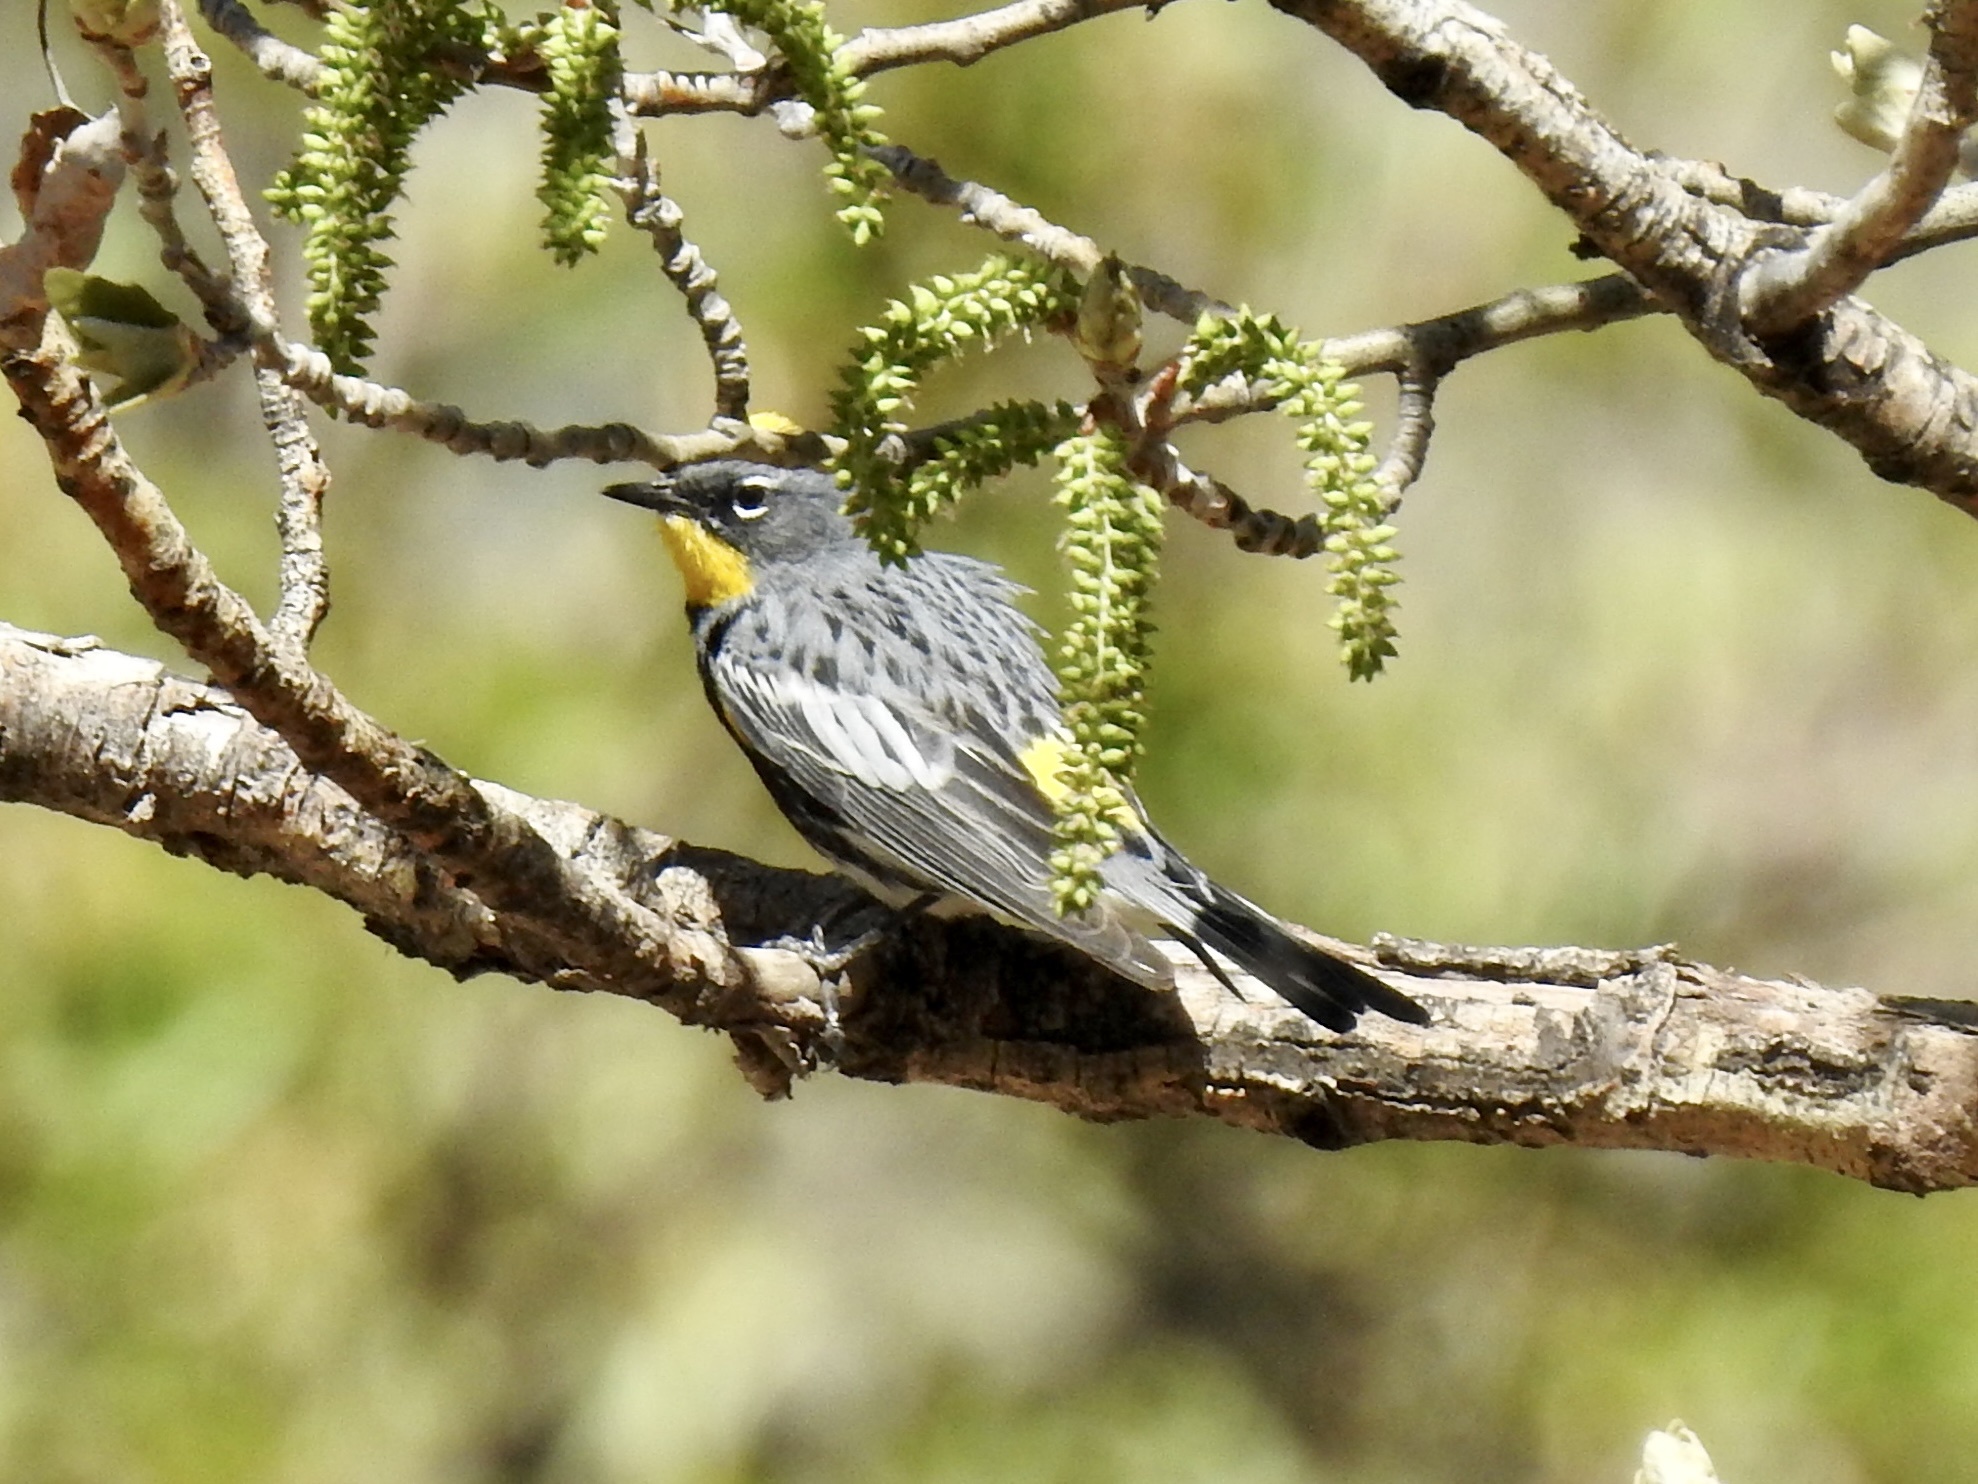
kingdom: Animalia
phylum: Chordata
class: Aves
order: Passeriformes
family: Parulidae
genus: Setophaga
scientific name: Setophaga coronata
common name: Myrtle warbler
